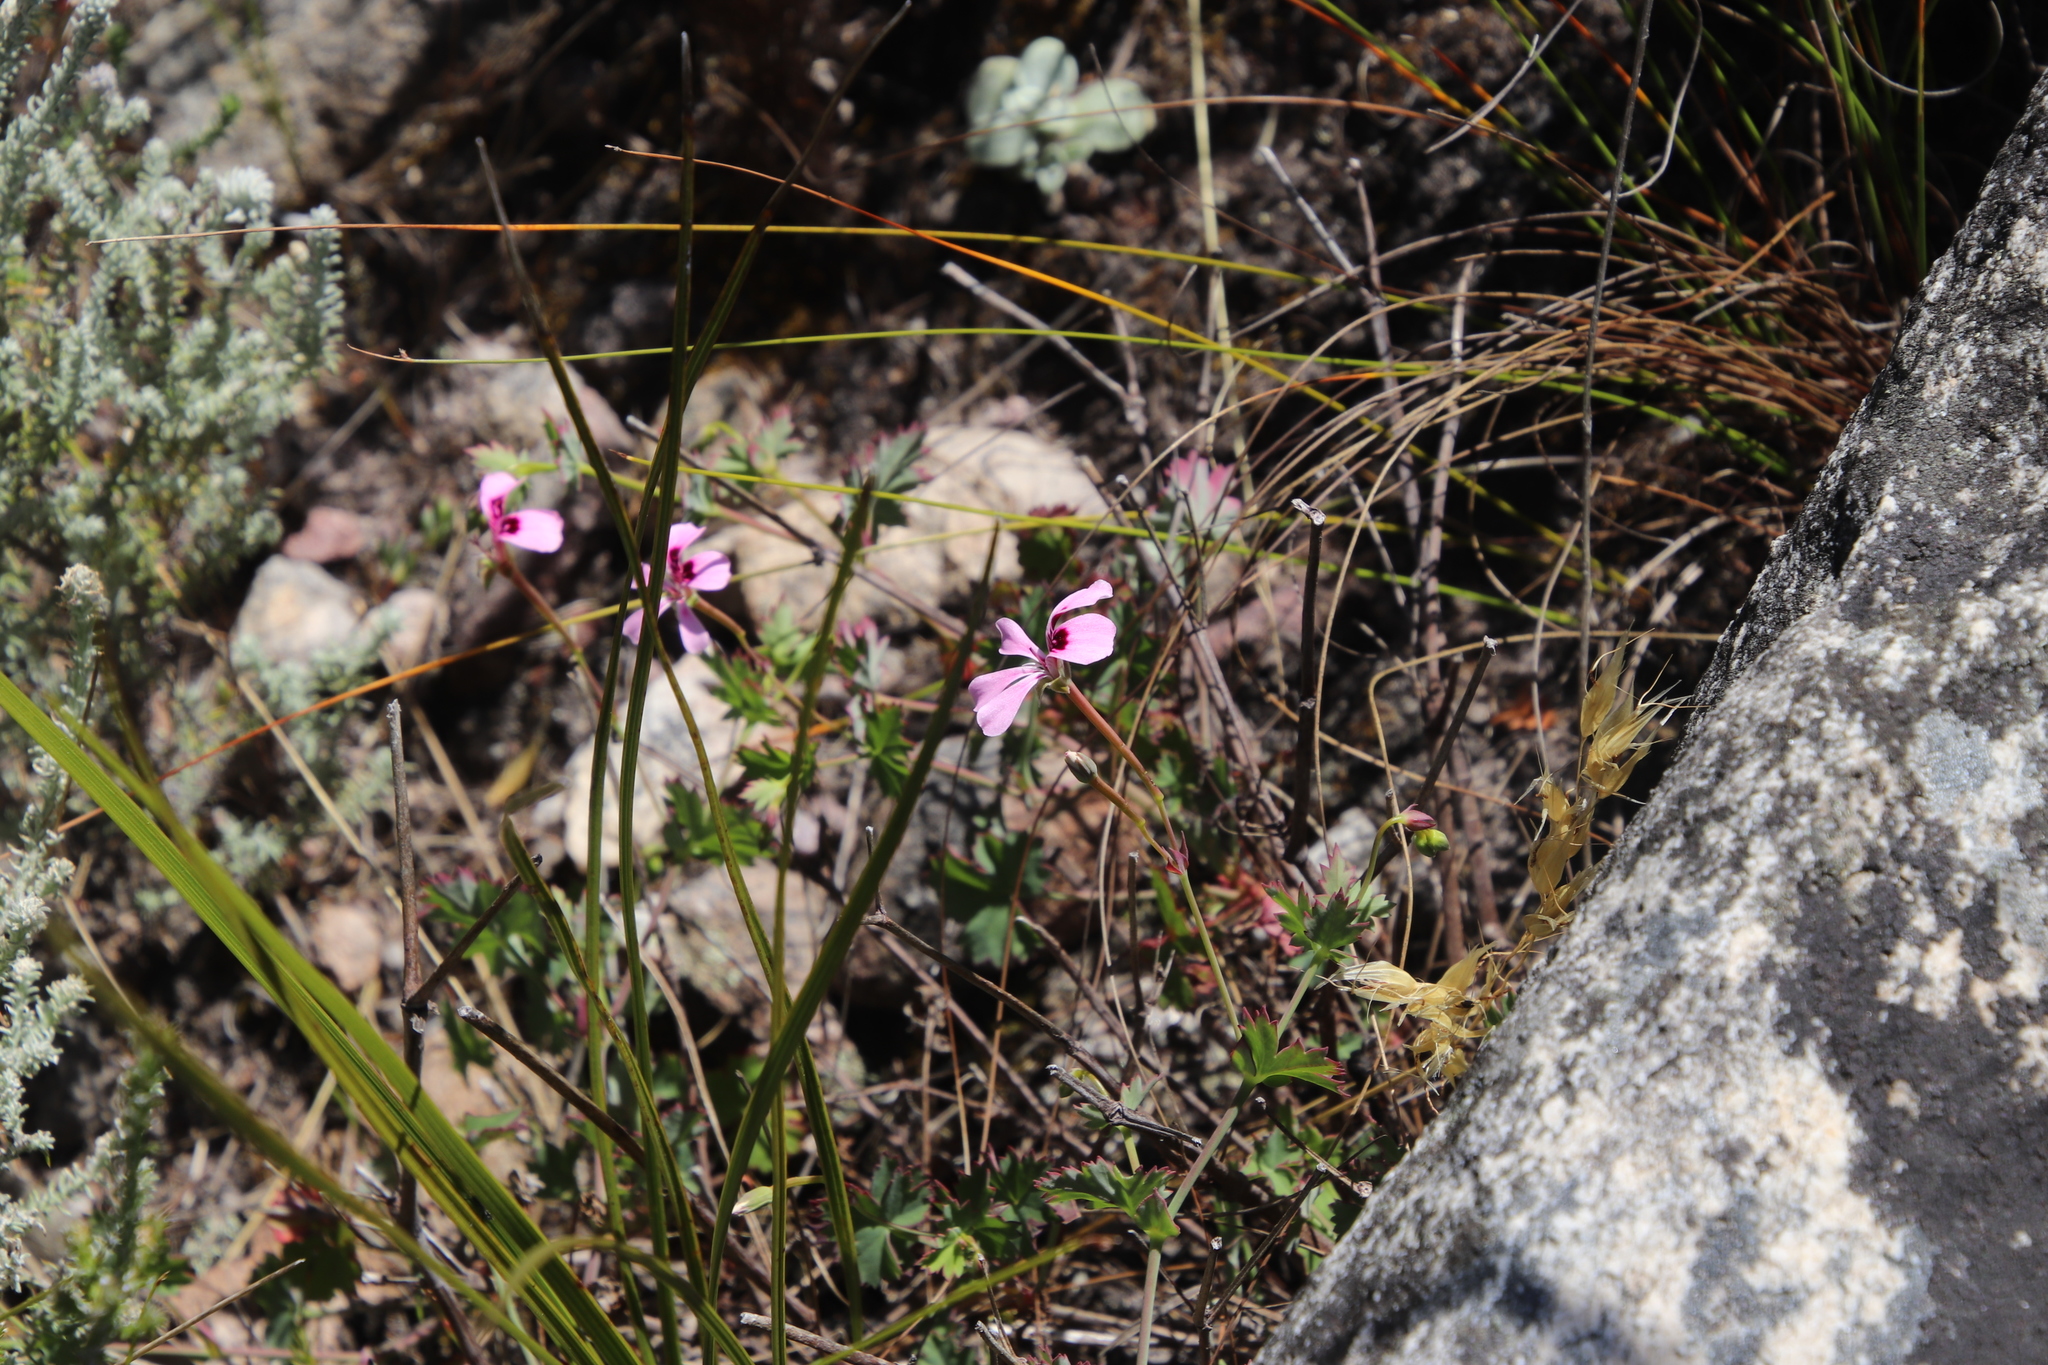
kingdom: Plantae
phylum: Tracheophyta
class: Magnoliopsida
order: Geraniales
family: Geraniaceae
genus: Pelargonium
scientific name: Pelargonium patulum
